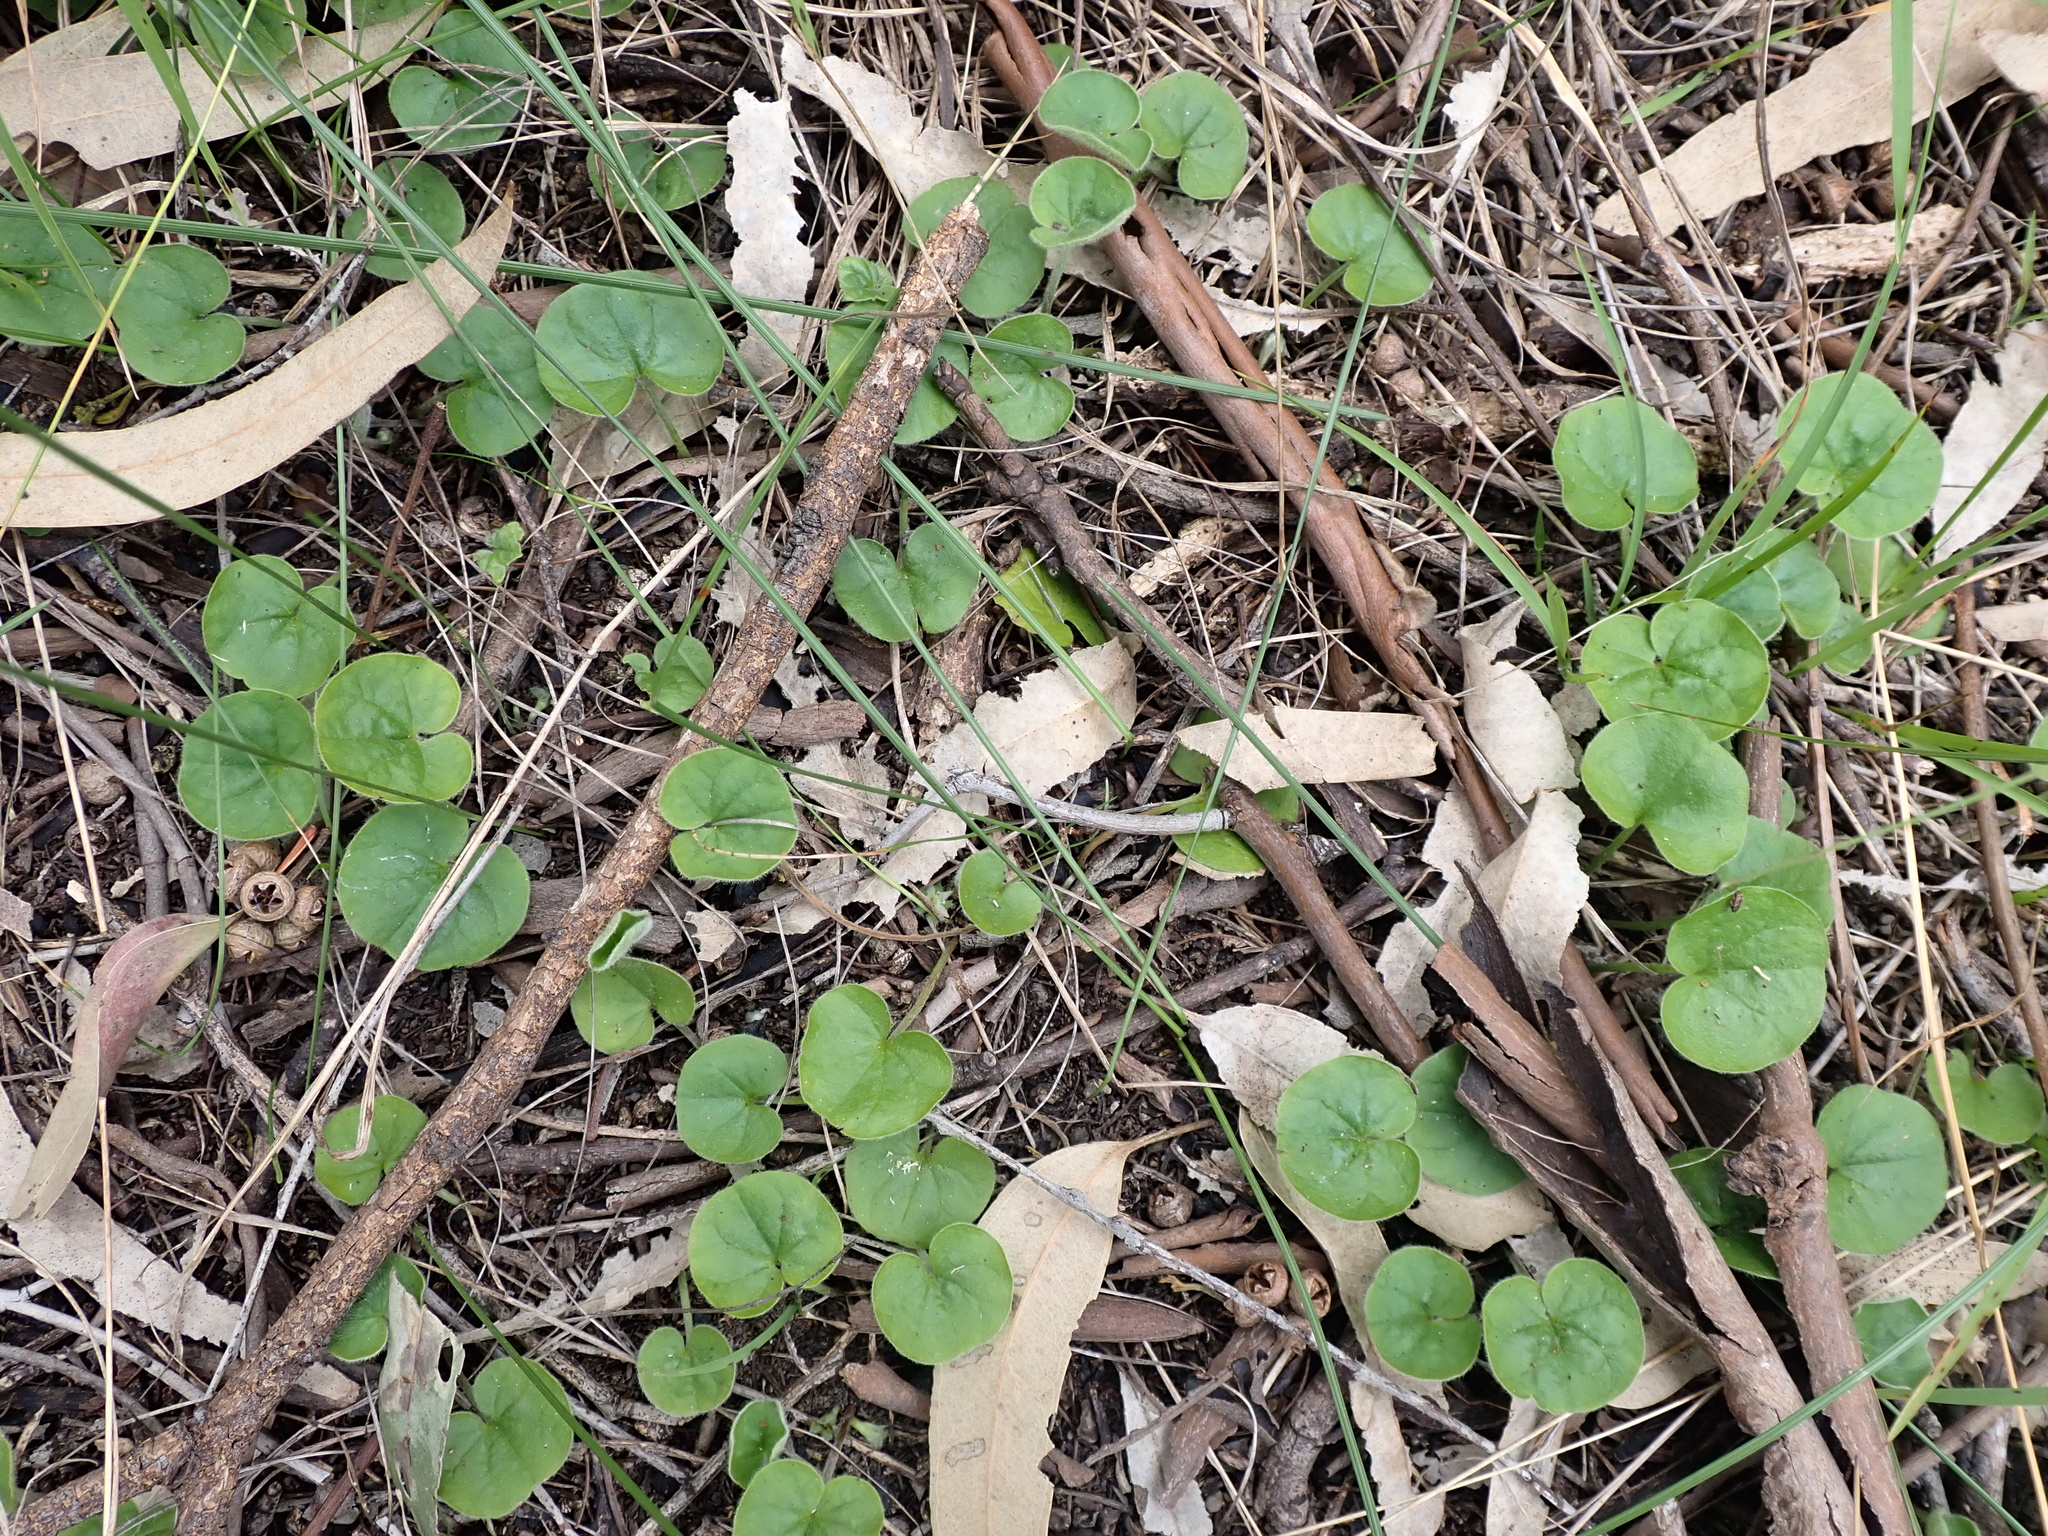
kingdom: Plantae
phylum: Tracheophyta
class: Magnoliopsida
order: Solanales
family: Convolvulaceae
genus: Dichondra
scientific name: Dichondra repens
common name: Kidneyweed
